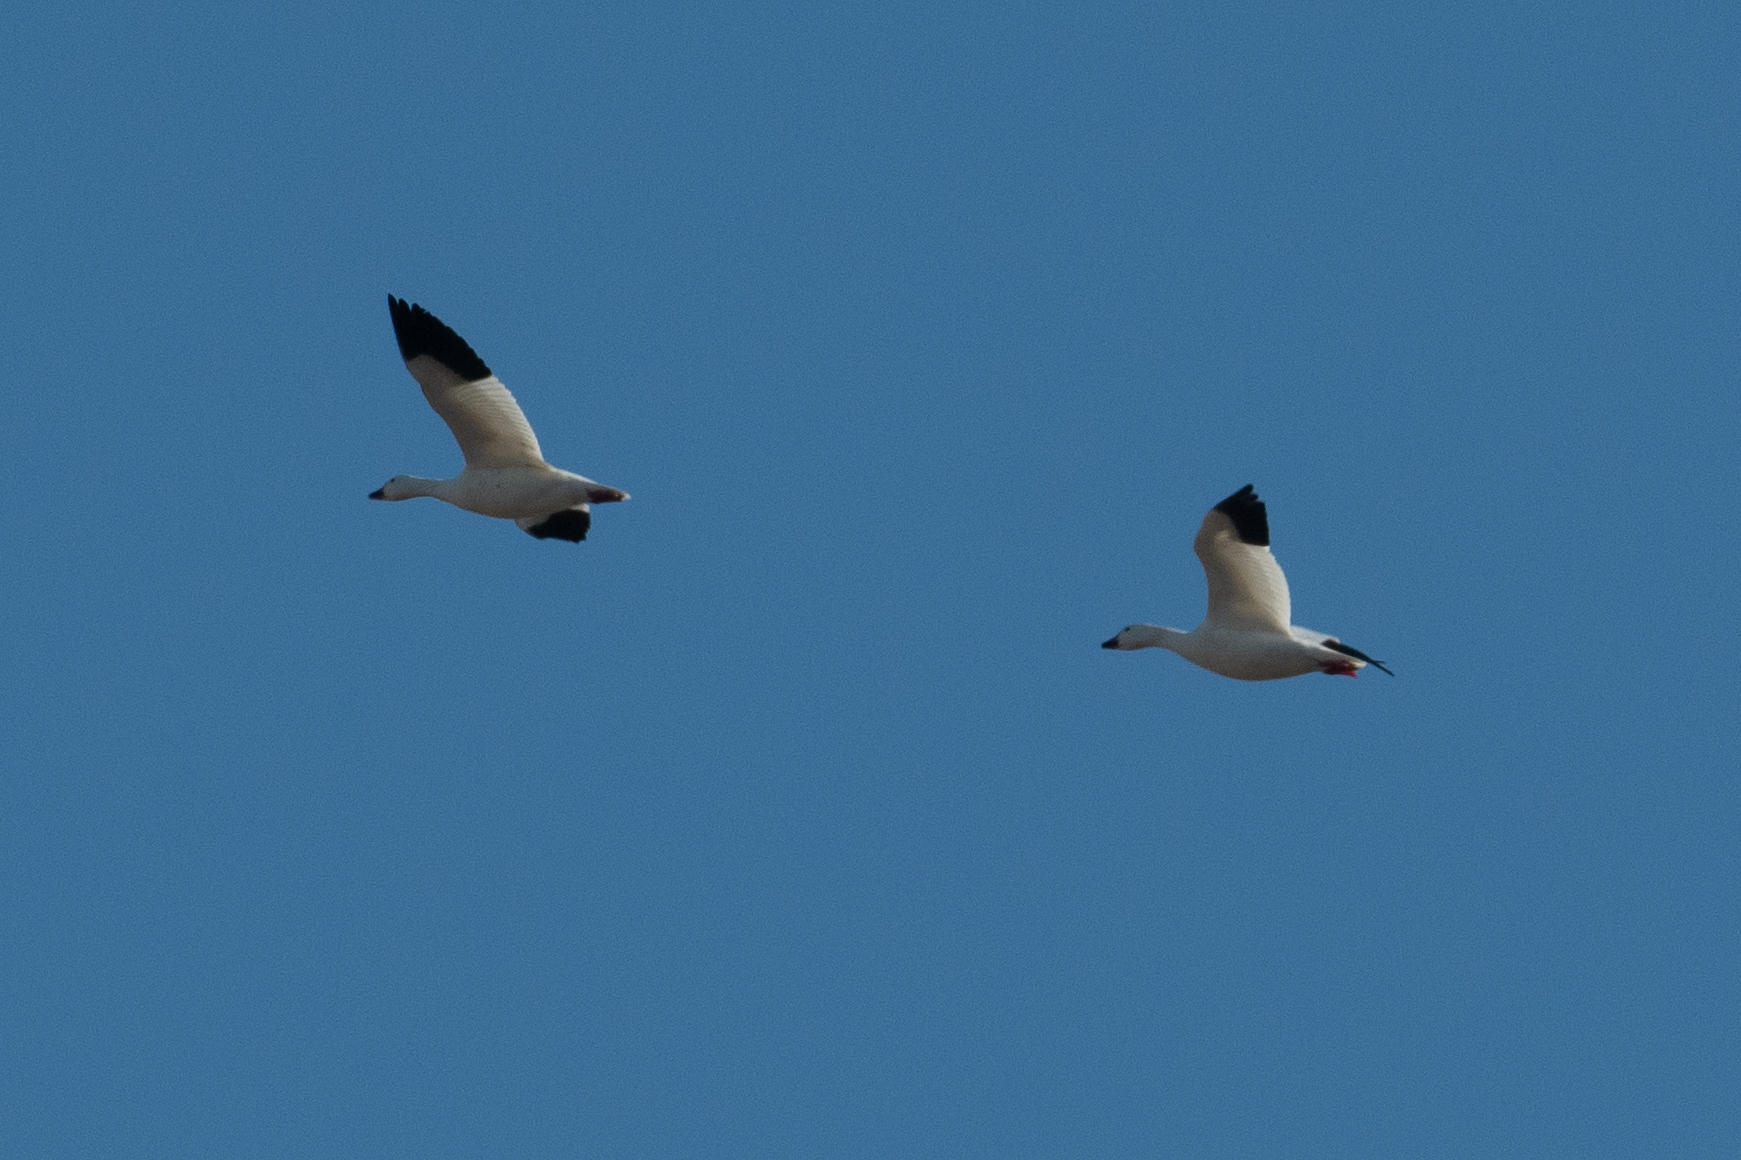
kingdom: Animalia
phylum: Chordata
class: Aves
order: Anseriformes
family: Anatidae
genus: Anser
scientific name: Anser caerulescens
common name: Snow goose
